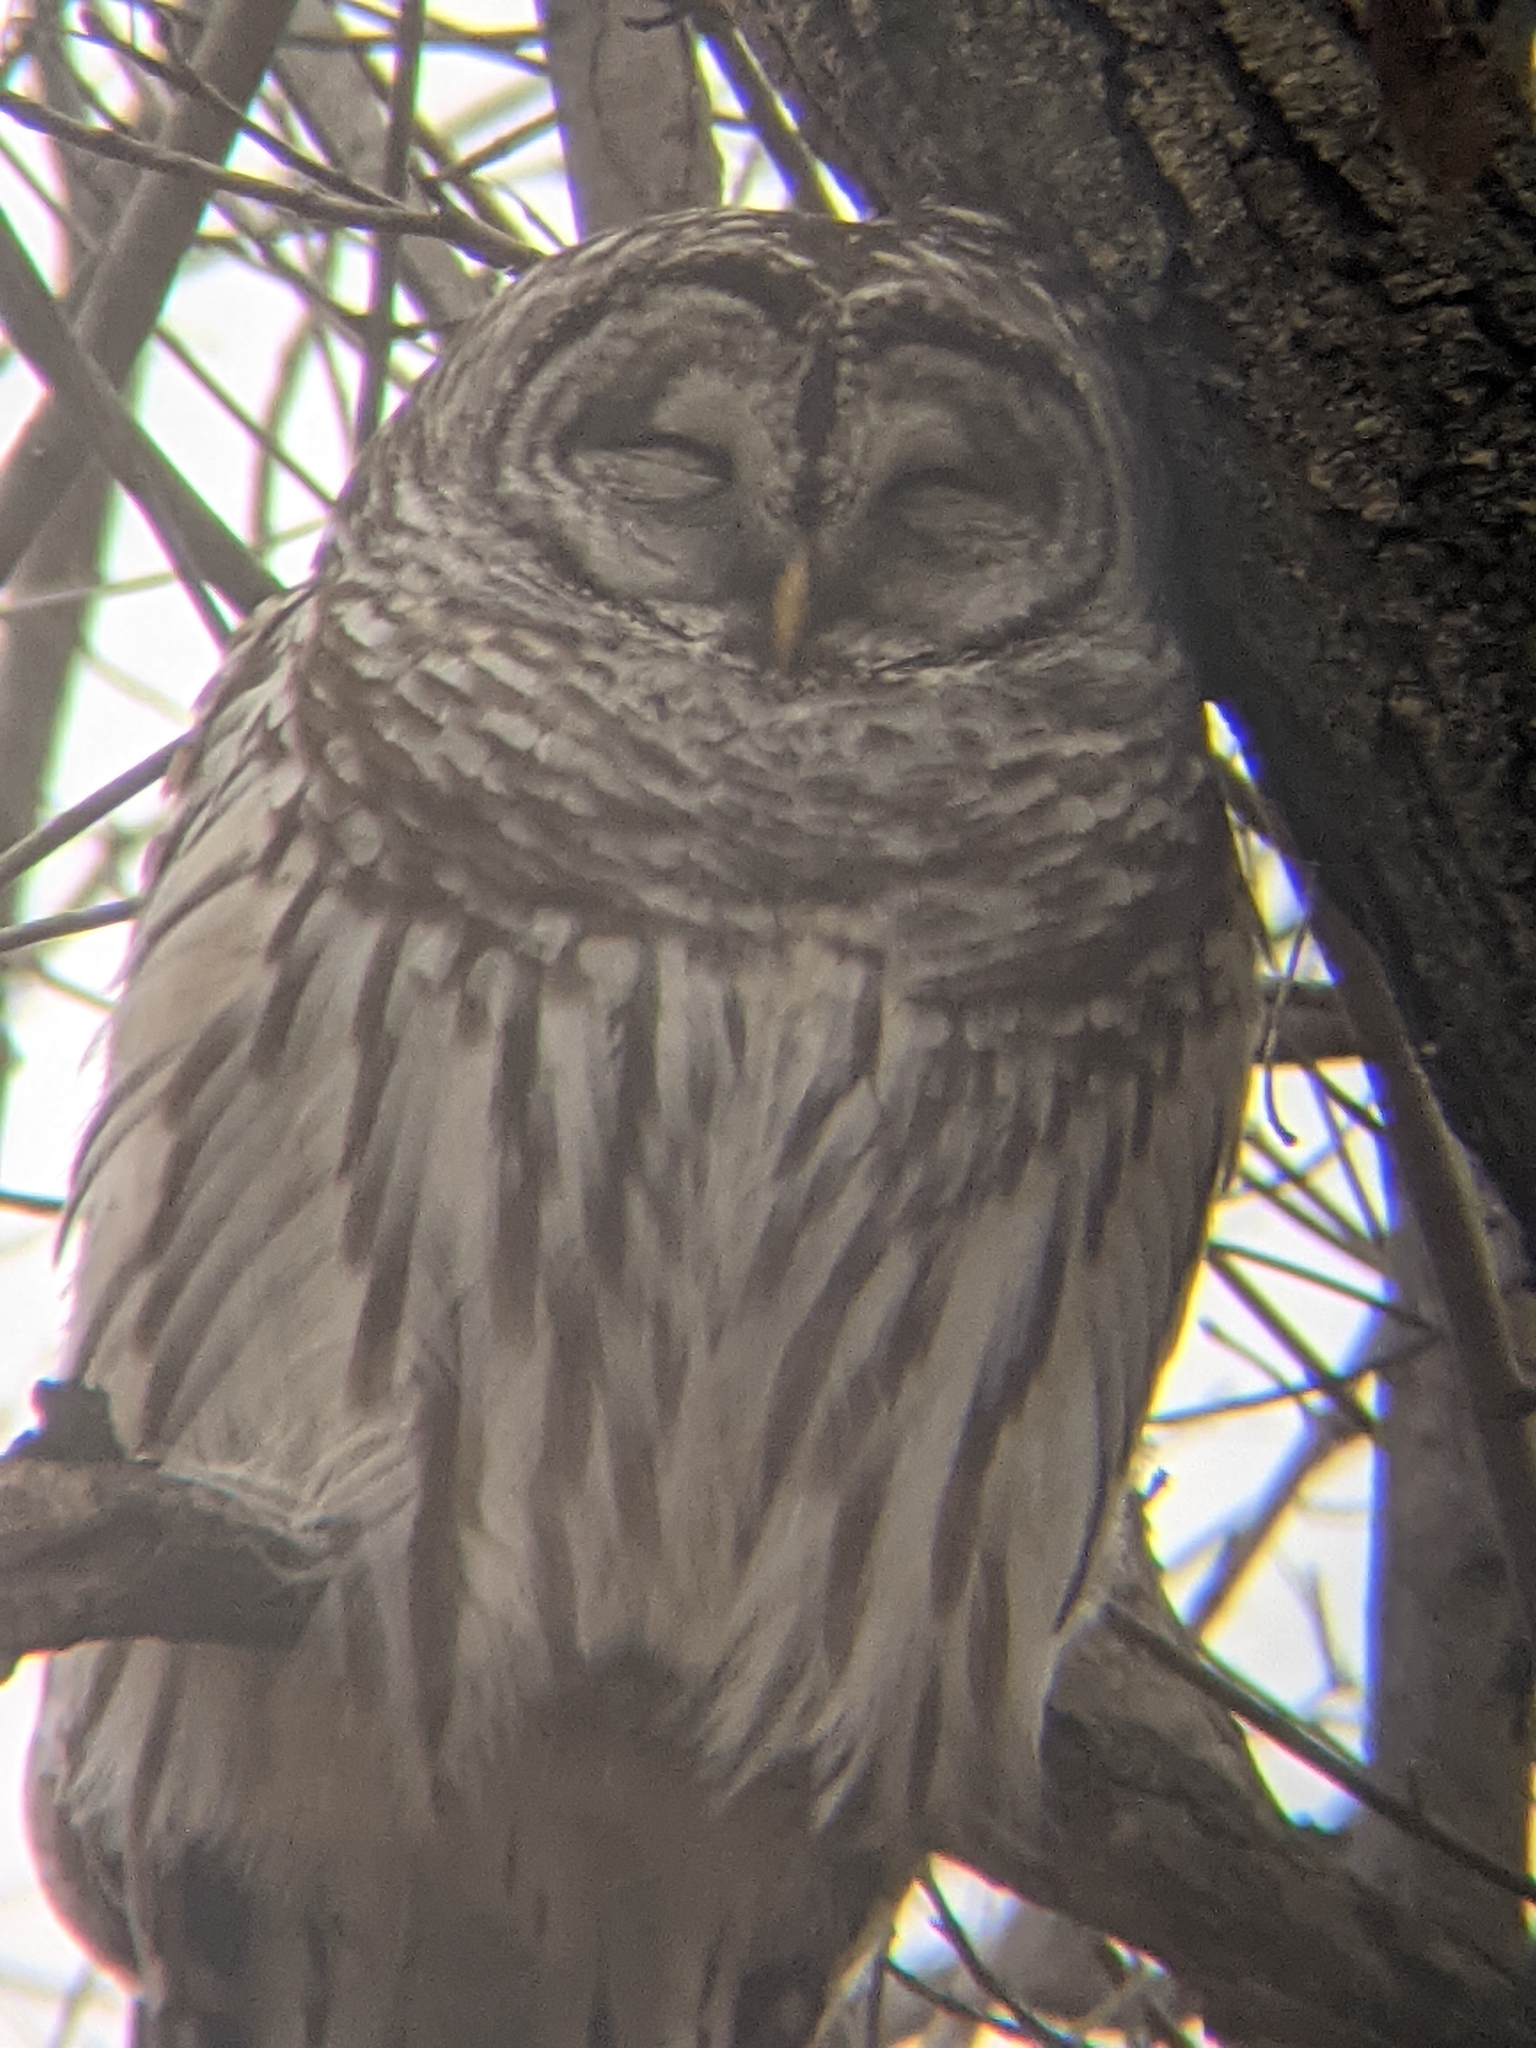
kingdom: Animalia
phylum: Chordata
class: Aves
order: Strigiformes
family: Strigidae
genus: Strix
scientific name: Strix varia
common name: Barred owl
